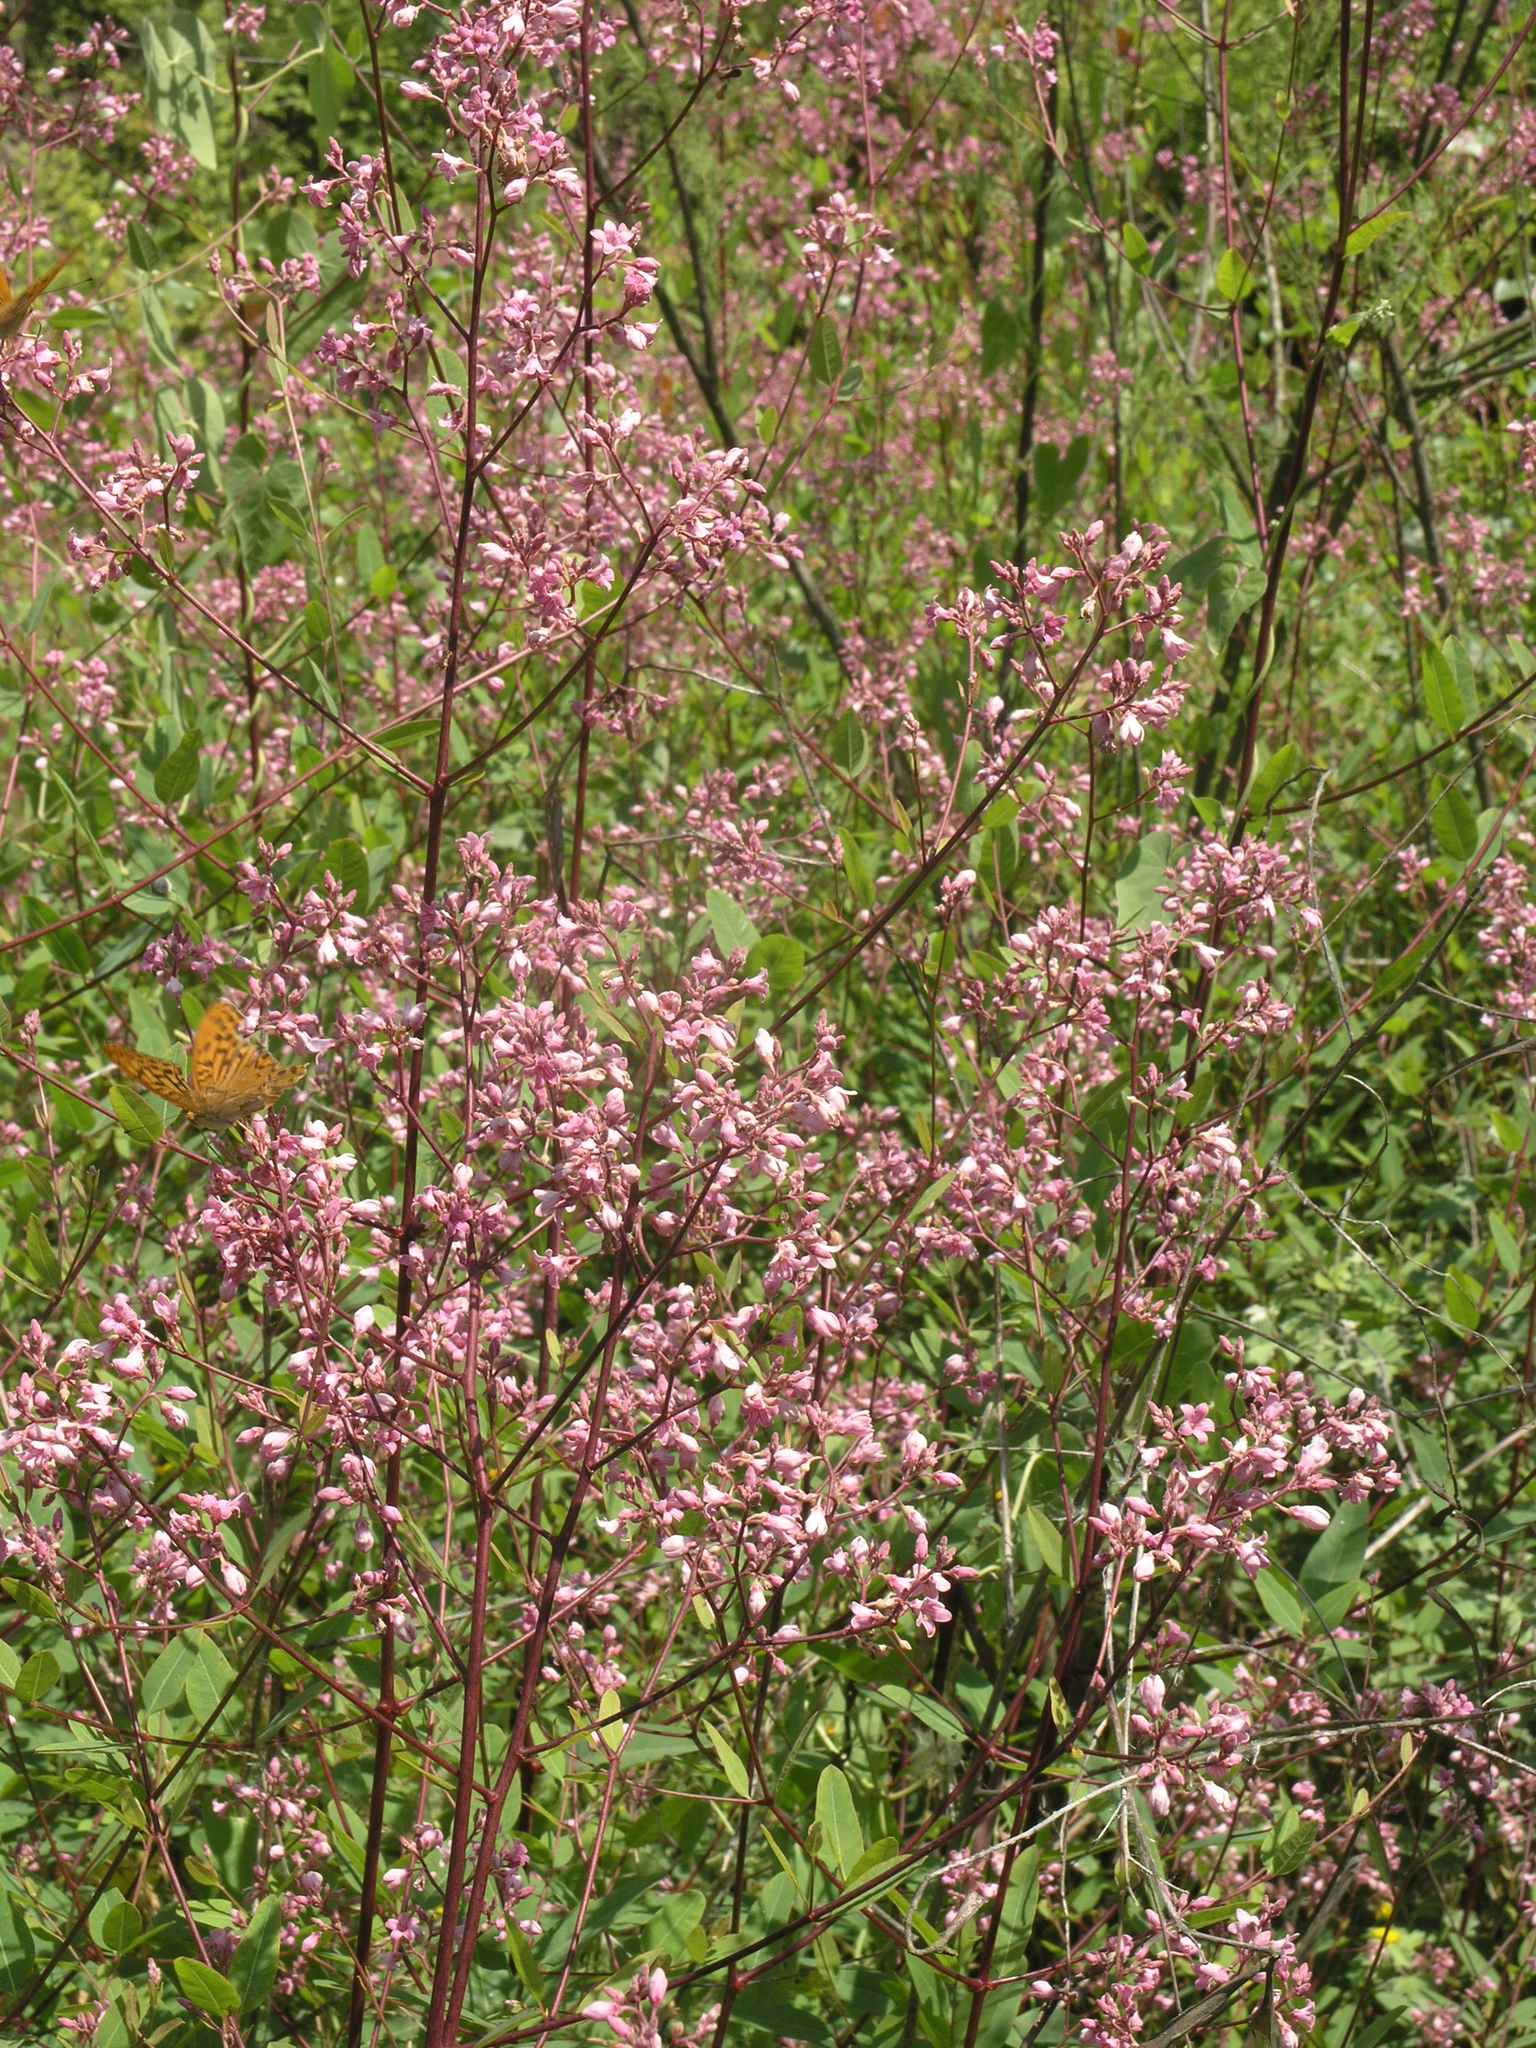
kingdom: Plantae
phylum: Tracheophyta
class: Magnoliopsida
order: Gentianales
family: Apocynaceae
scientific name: Apocynaceae
